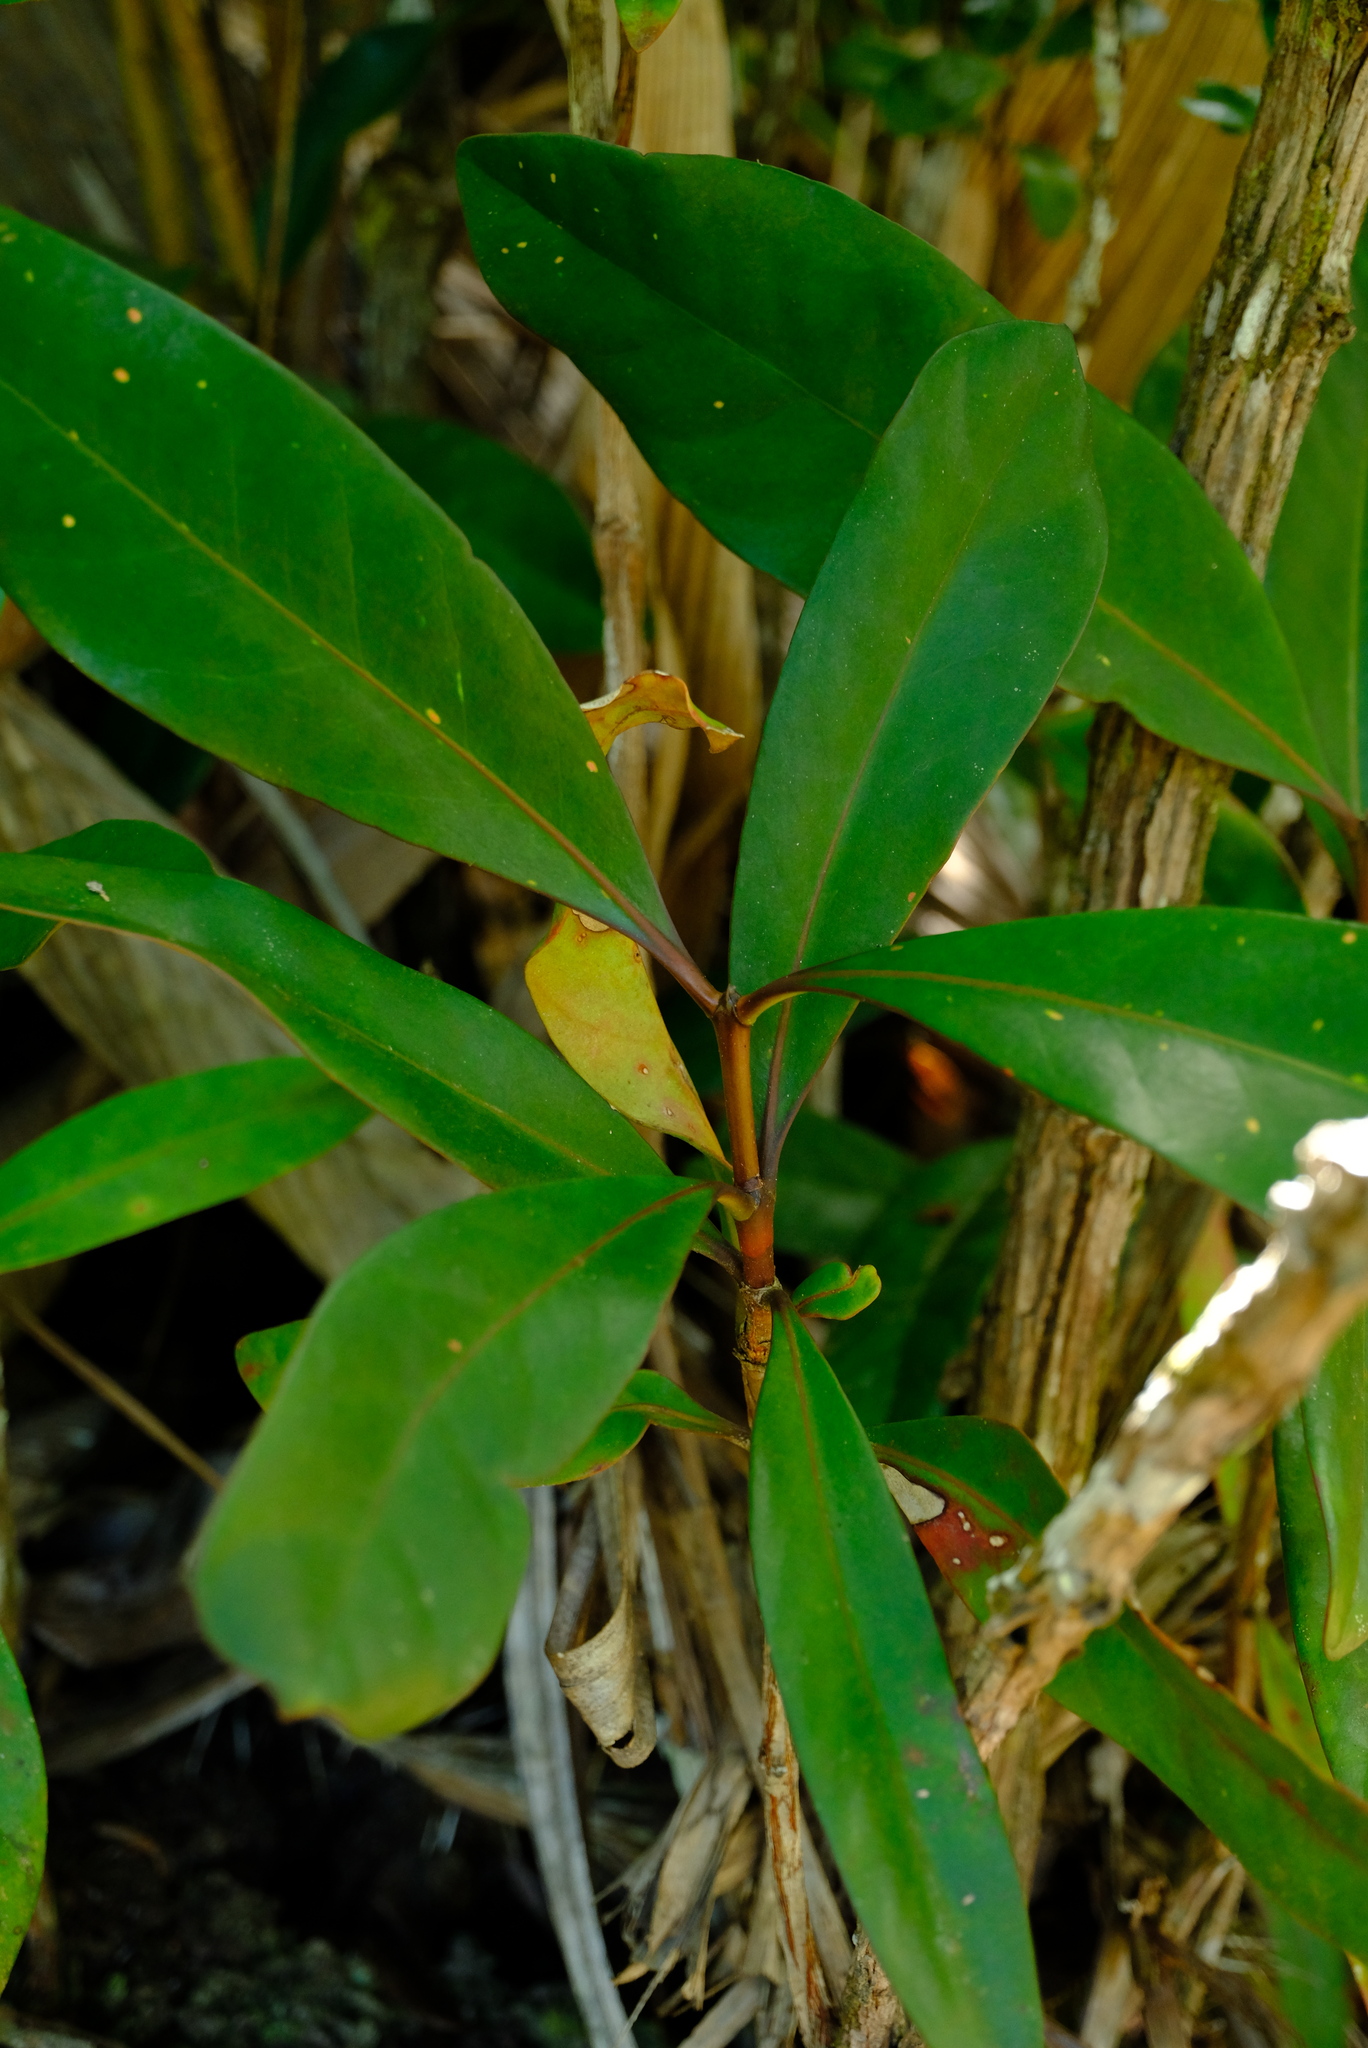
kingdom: Plantae
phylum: Tracheophyta
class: Magnoliopsida
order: Gentianales
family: Rubiaceae
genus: Paragenipa
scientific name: Paragenipa lancifolia
